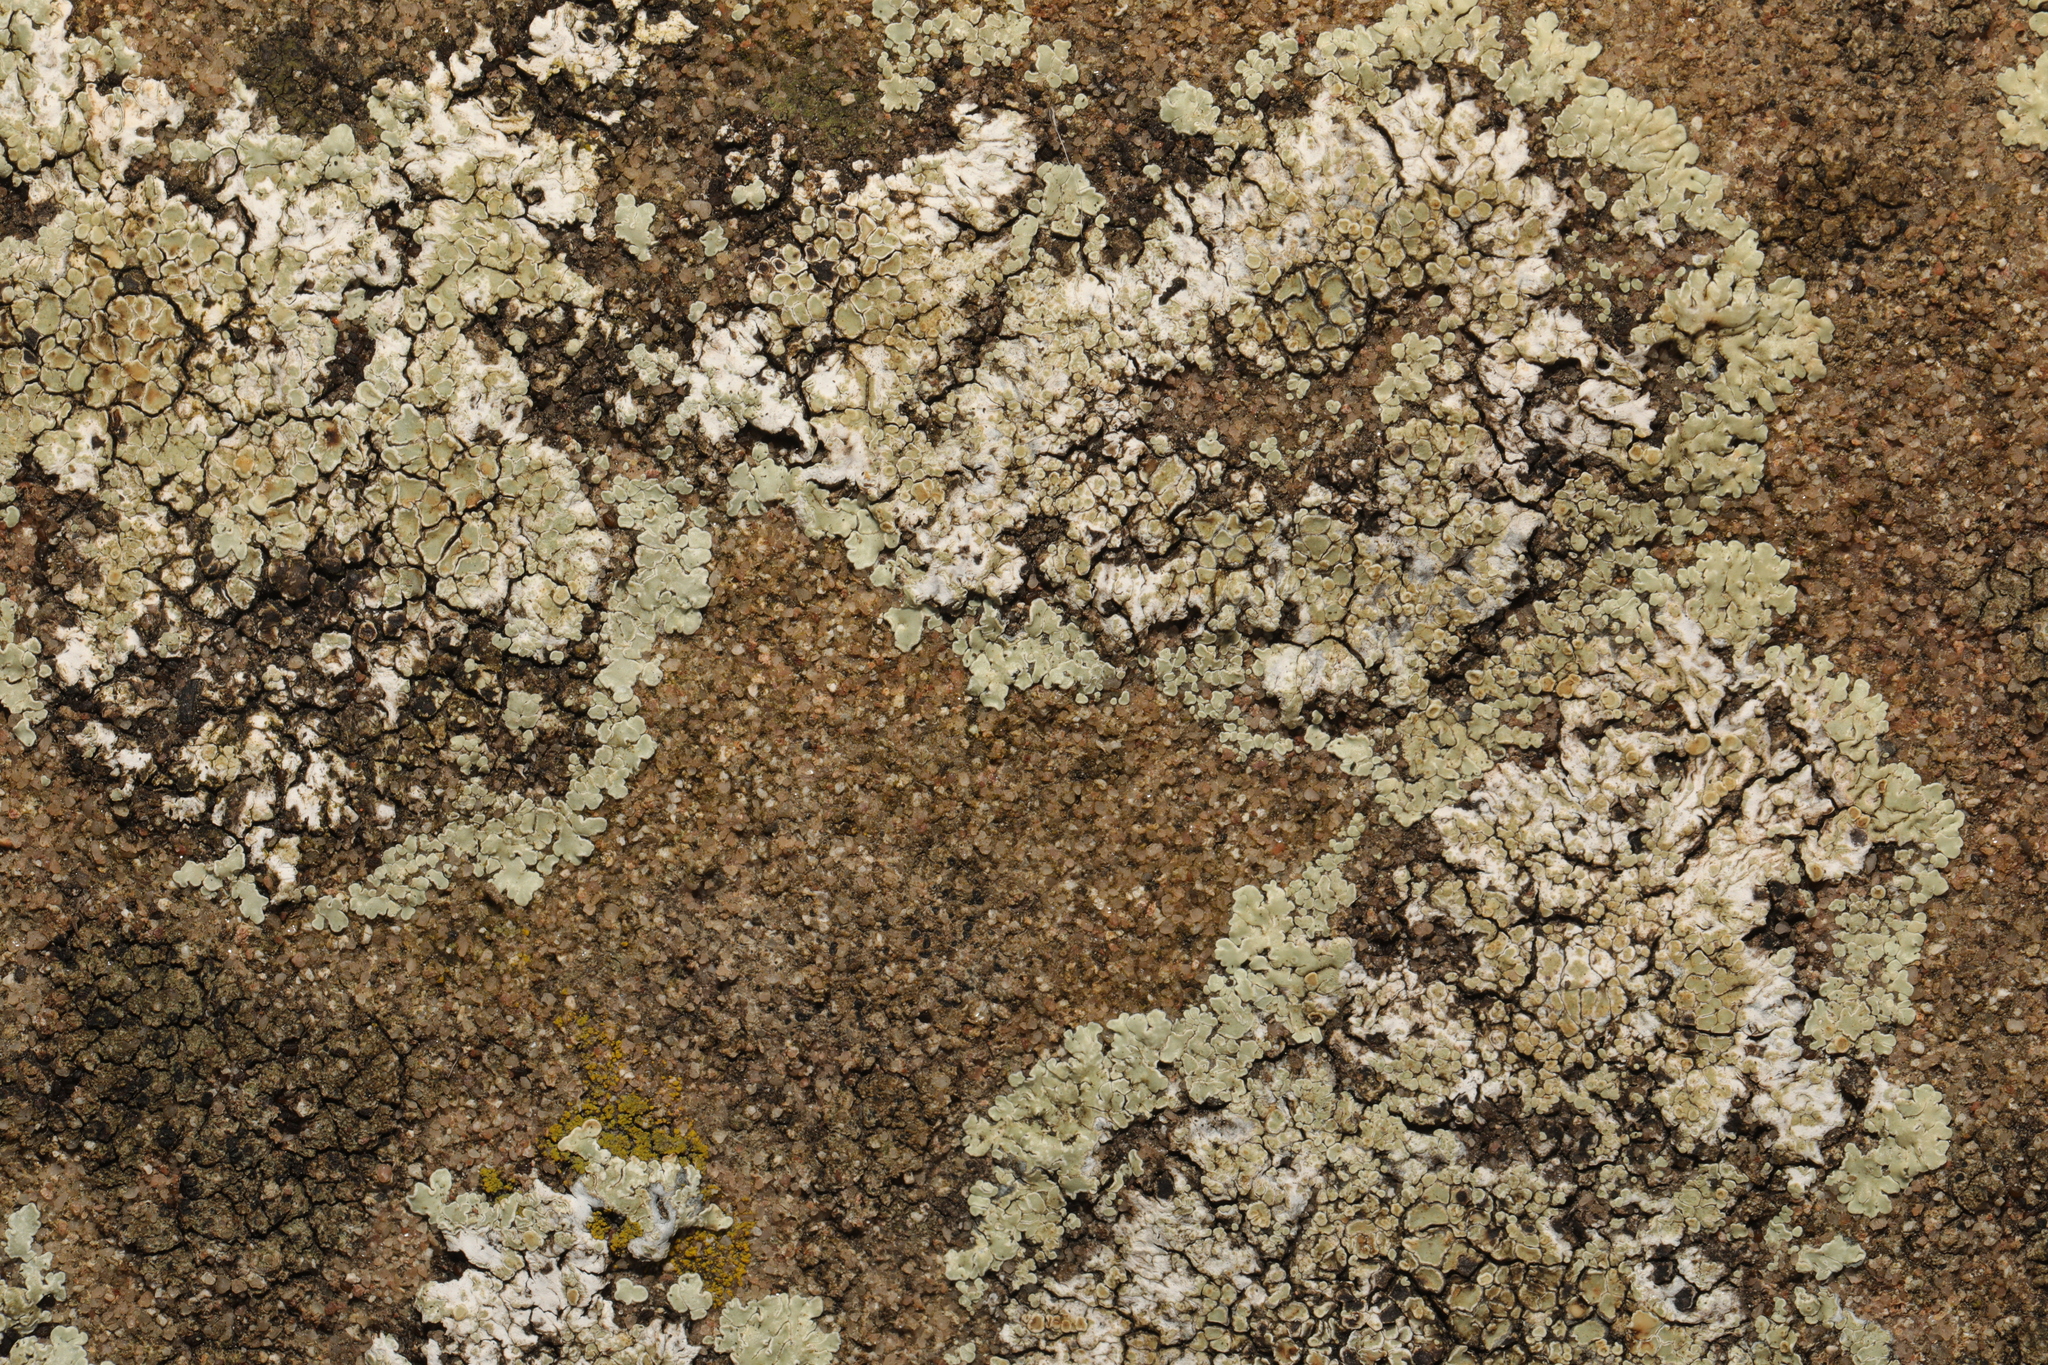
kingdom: Fungi
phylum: Ascomycota
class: Lecanoromycetes
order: Lecanorales
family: Lecanoraceae
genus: Protoparmeliopsis
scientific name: Protoparmeliopsis muralis
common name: Stonewall rim lichen
